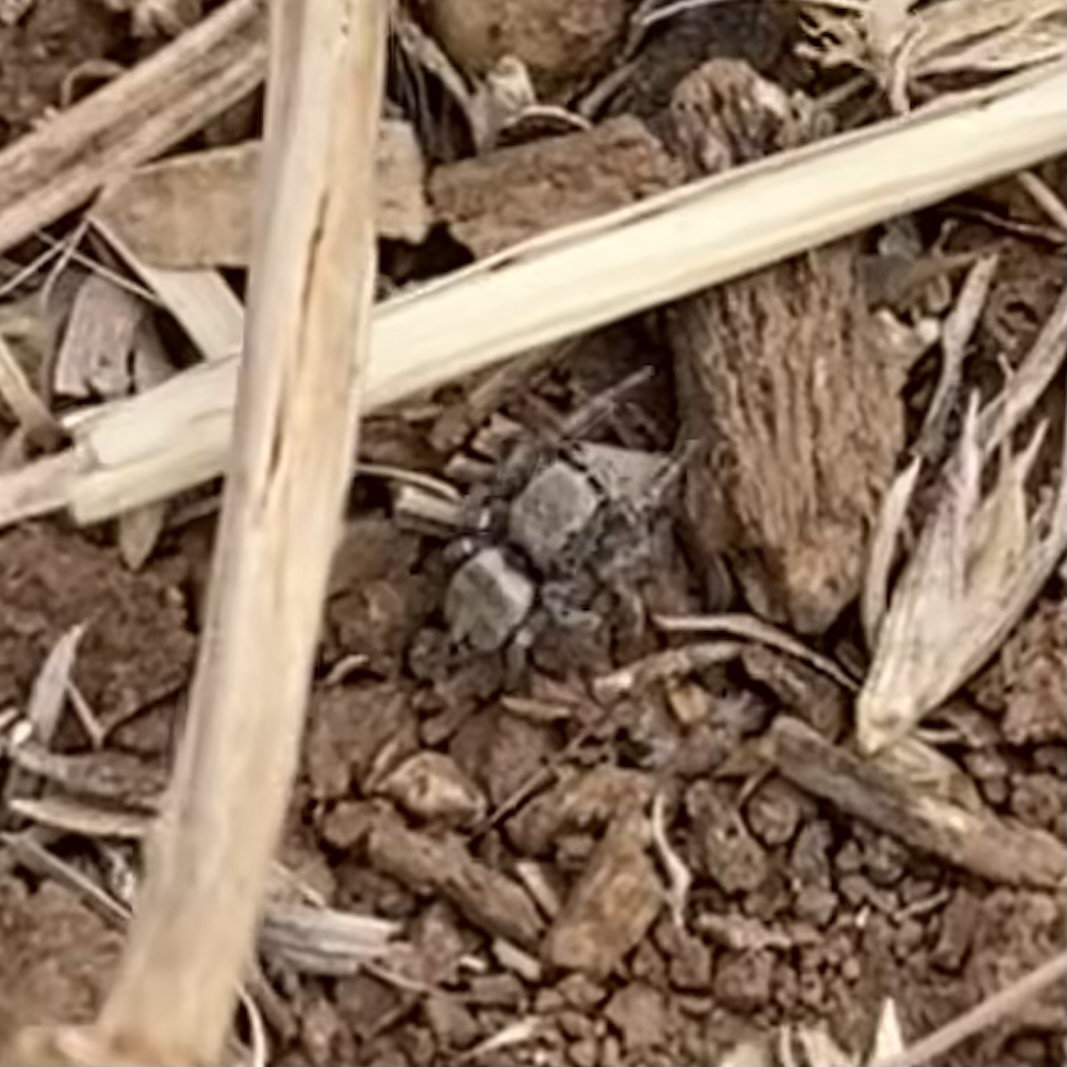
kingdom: Animalia
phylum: Arthropoda
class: Arachnida
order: Araneae
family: Salticidae
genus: Habronattus
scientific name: Habronattus klauseri
